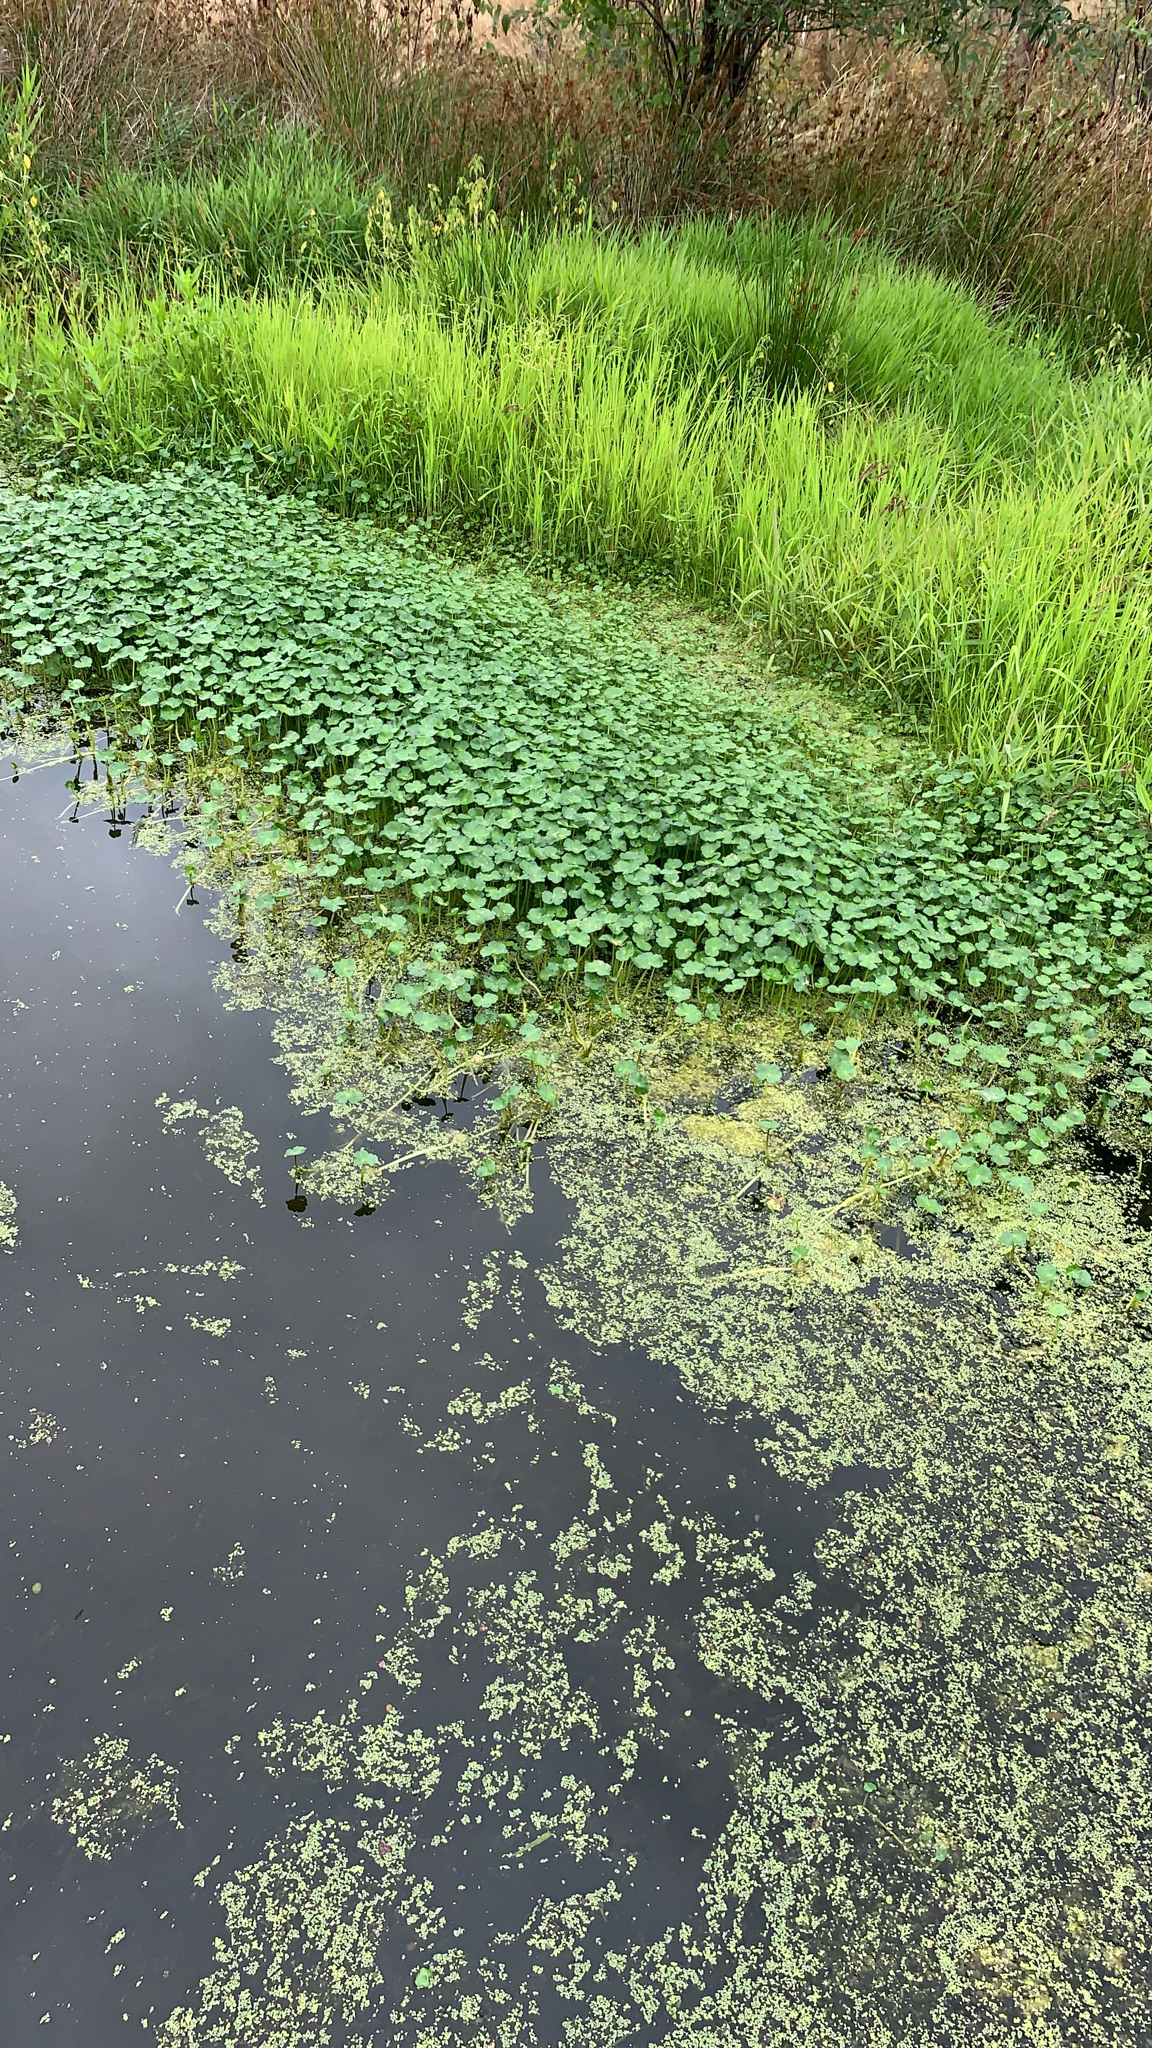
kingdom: Plantae
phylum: Tracheophyta
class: Magnoliopsida
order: Apiales
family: Araliaceae
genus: Hydrocotyle
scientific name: Hydrocotyle ranunculoides
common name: Floating pennywort
